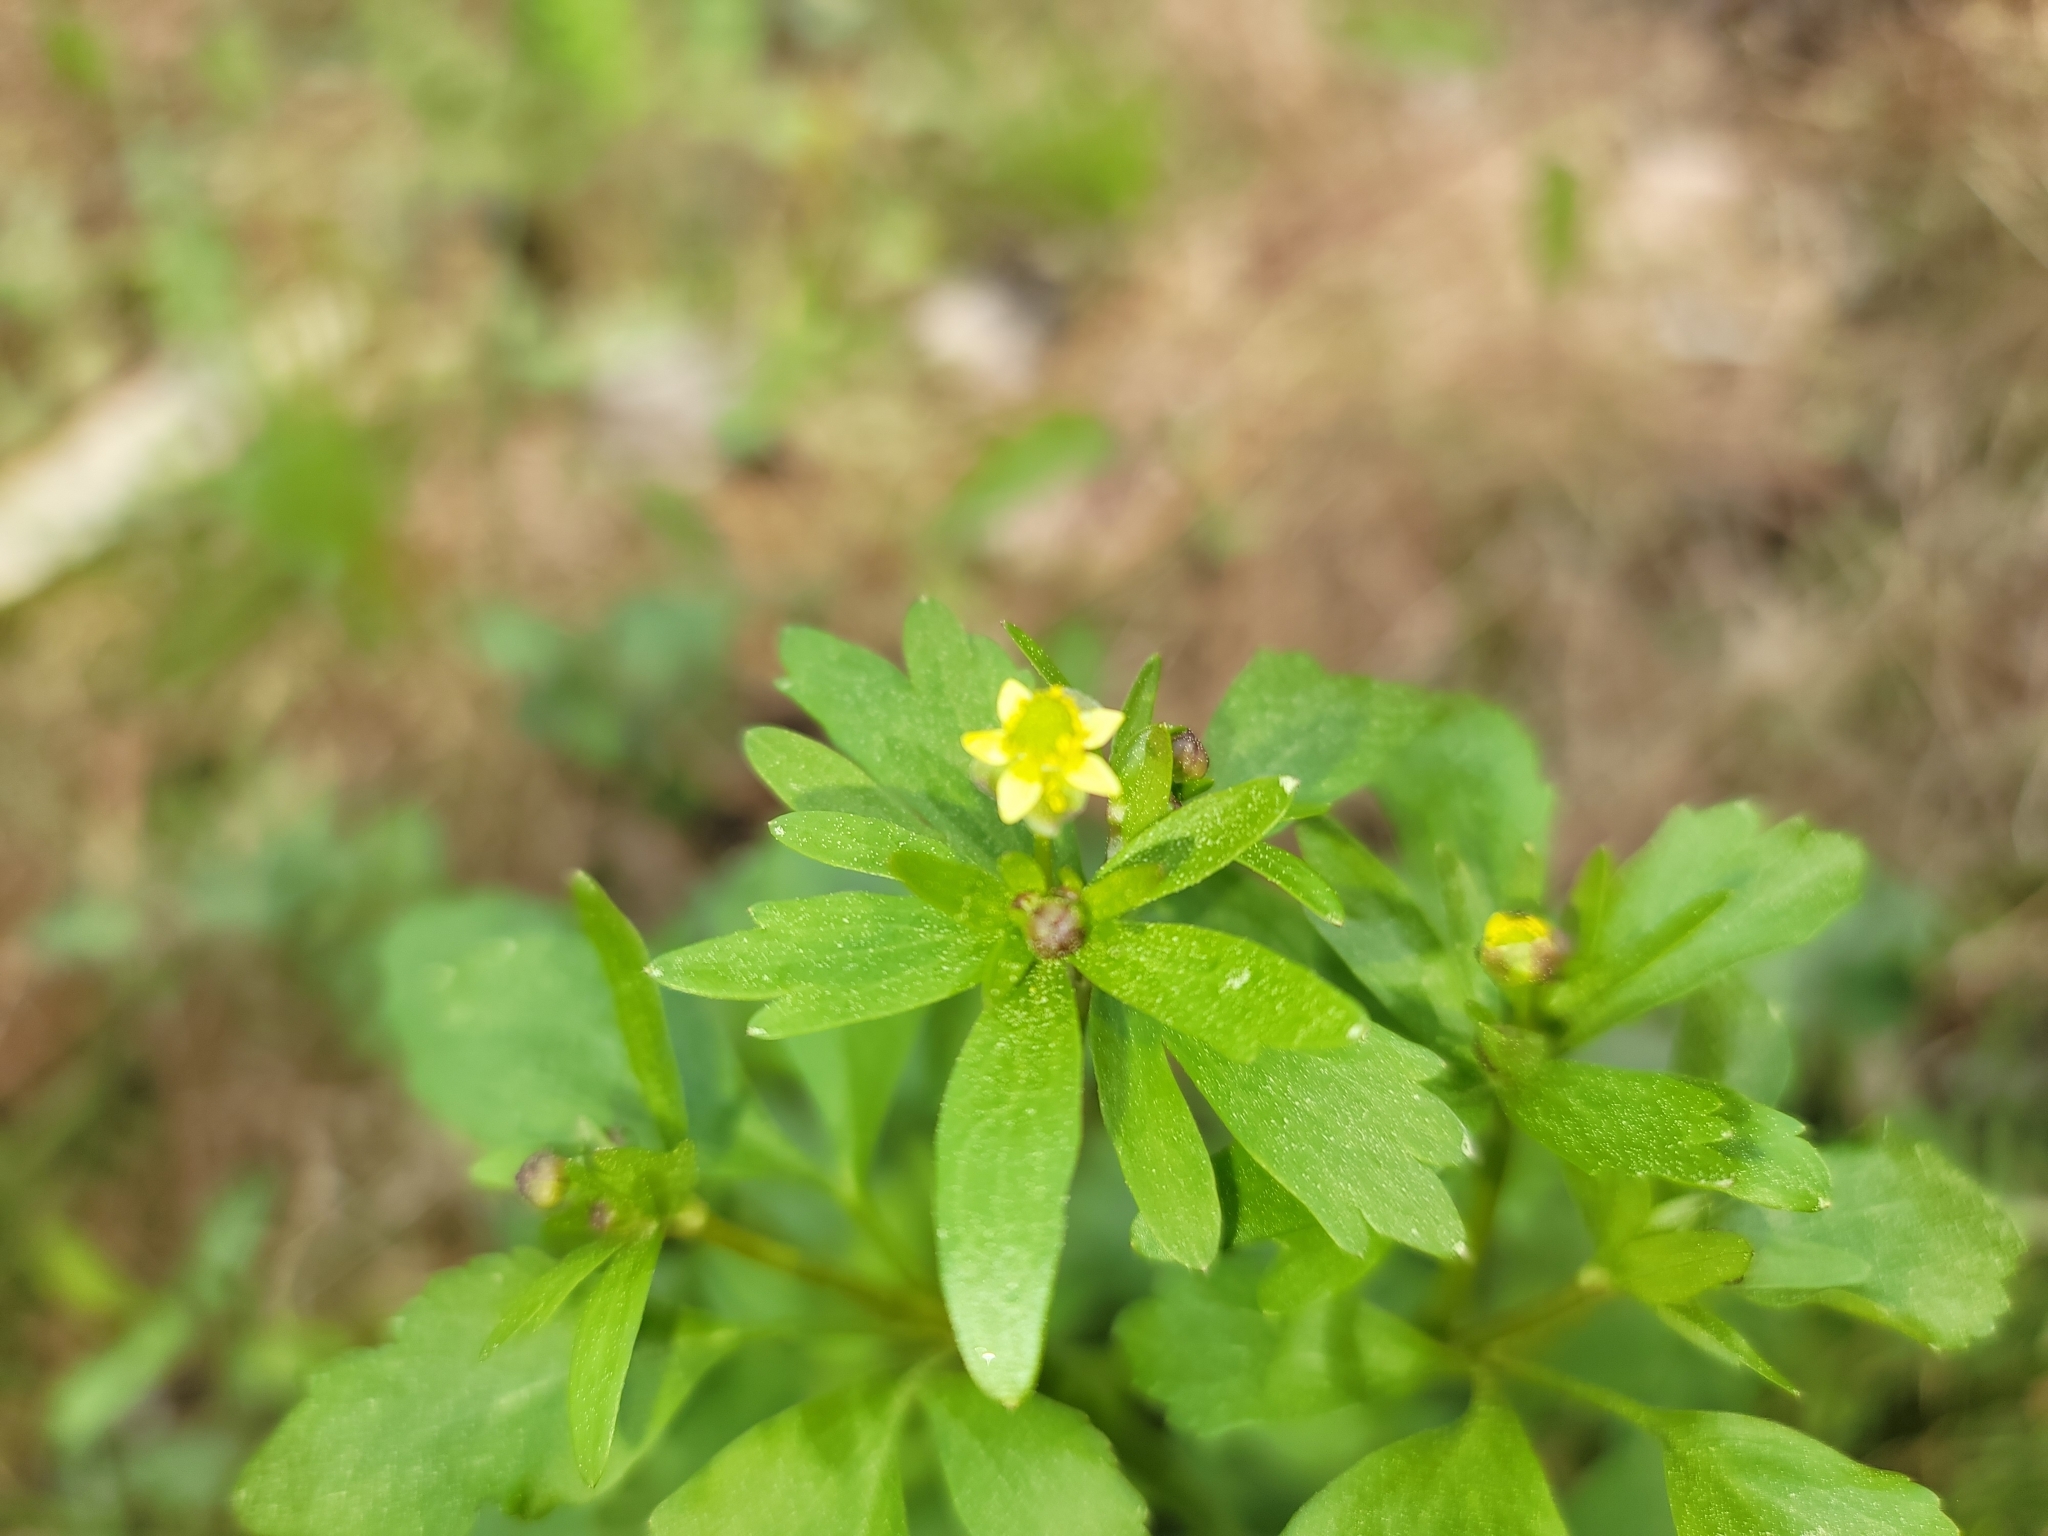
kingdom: Plantae
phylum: Tracheophyta
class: Magnoliopsida
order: Ranunculales
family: Ranunculaceae
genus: Ranunculus
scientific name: Ranunculus abortivus
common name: Early wood buttercup
